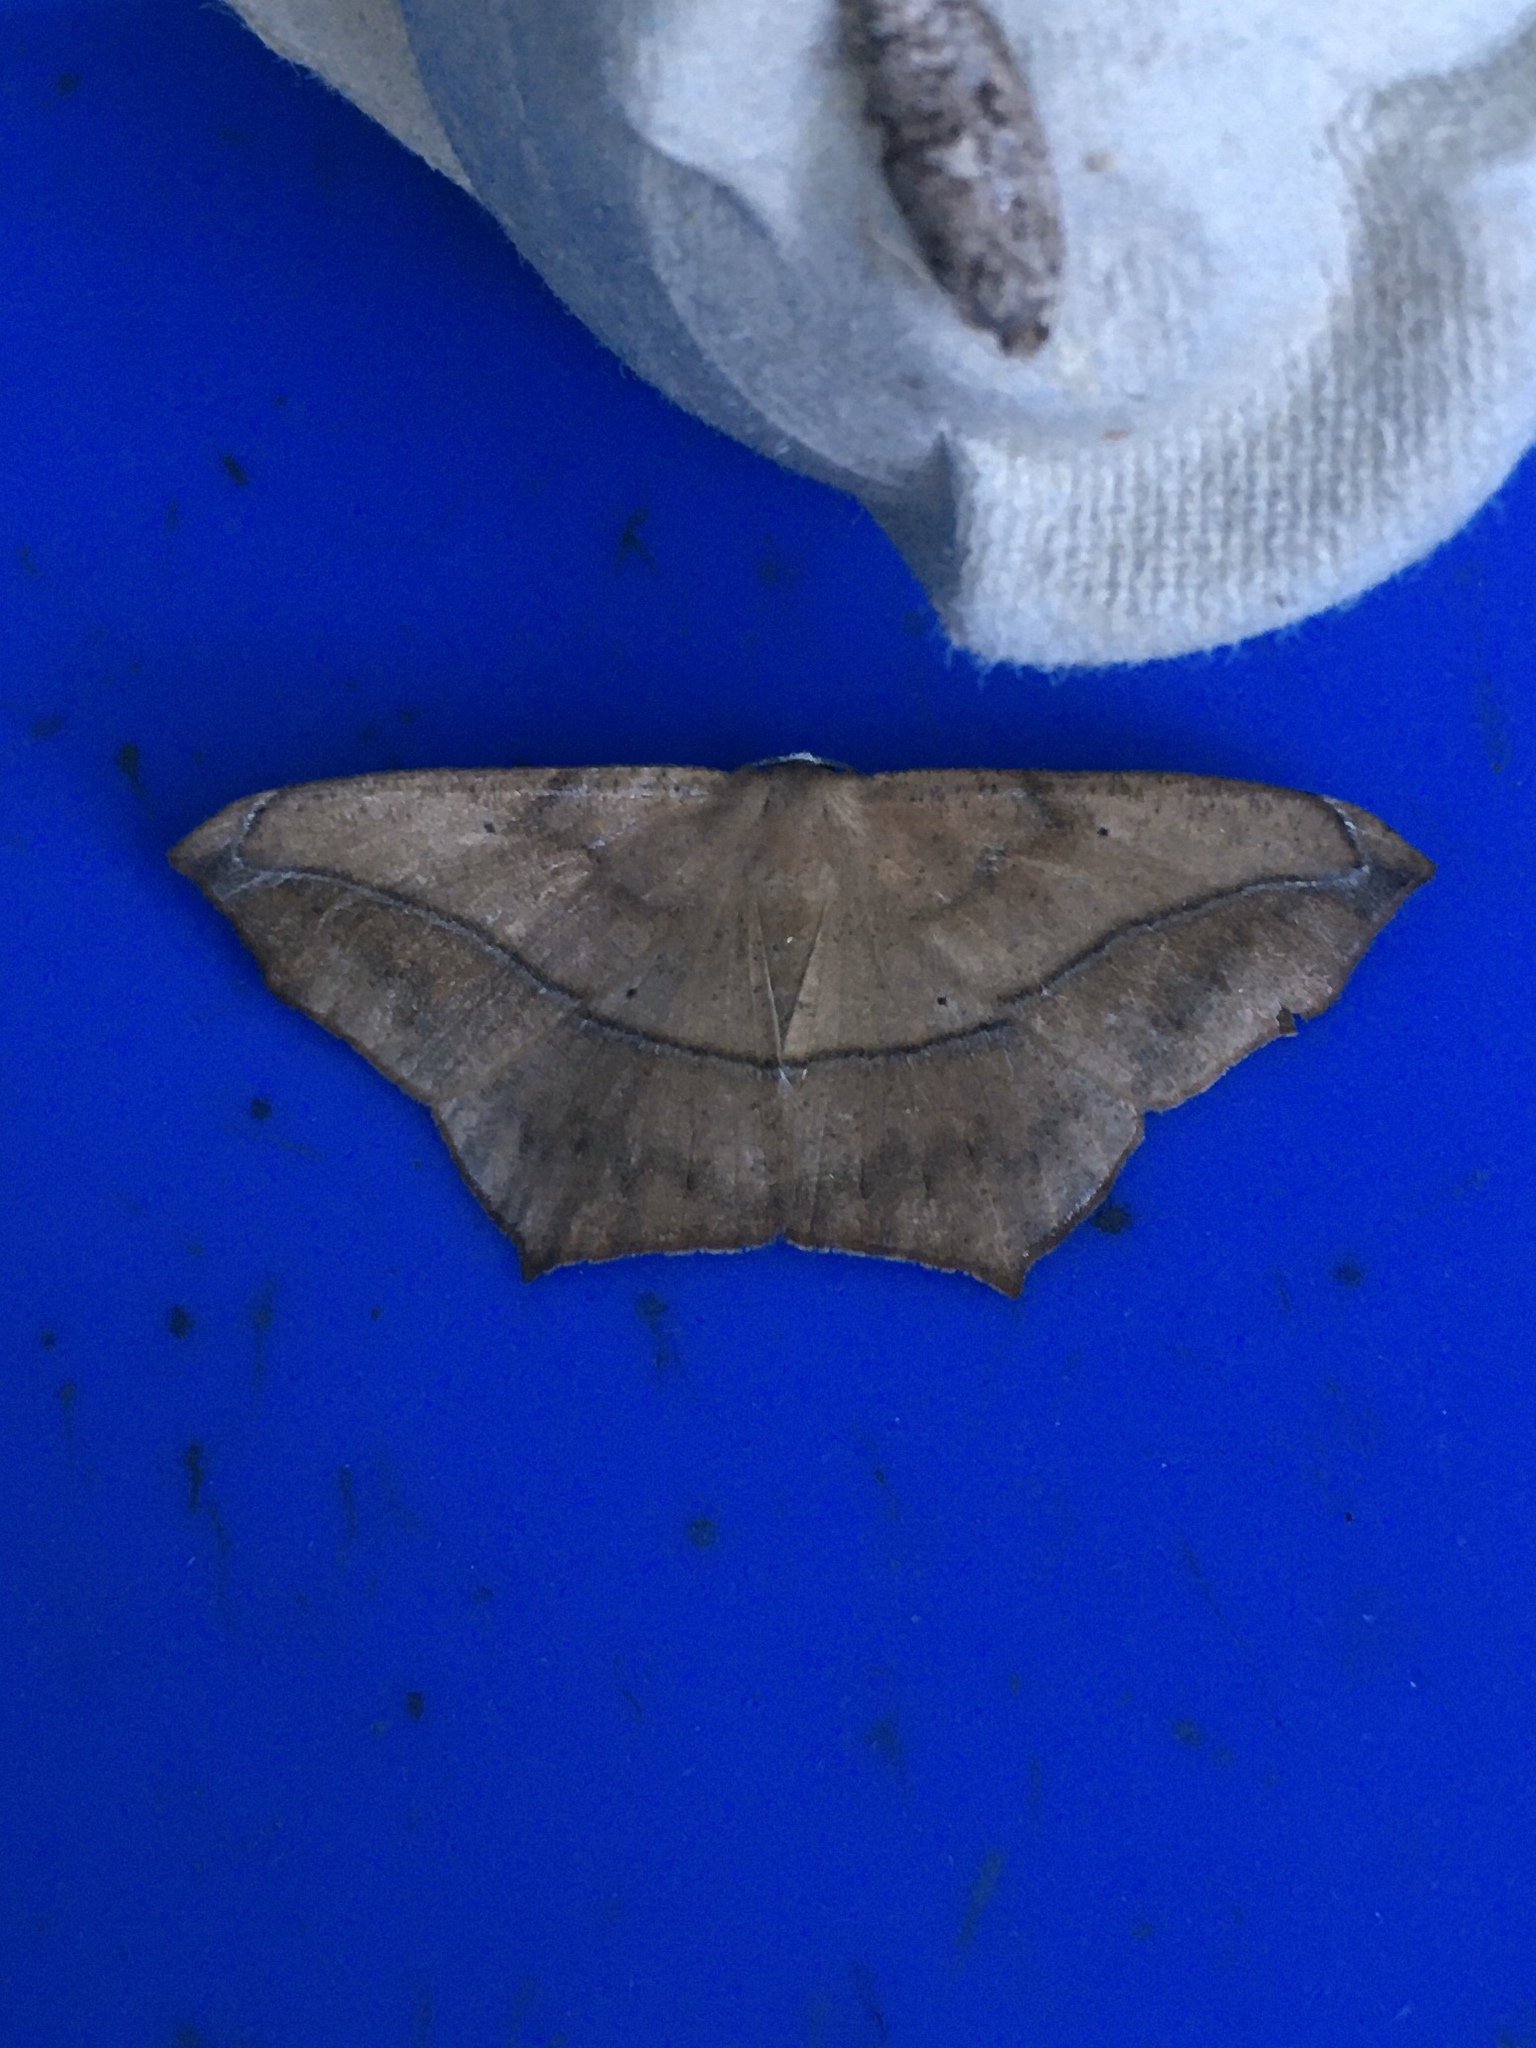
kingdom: Animalia
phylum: Arthropoda
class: Insecta
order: Lepidoptera
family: Geometridae
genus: Prochoerodes
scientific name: Prochoerodes lineola
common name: Large maple spanworm
